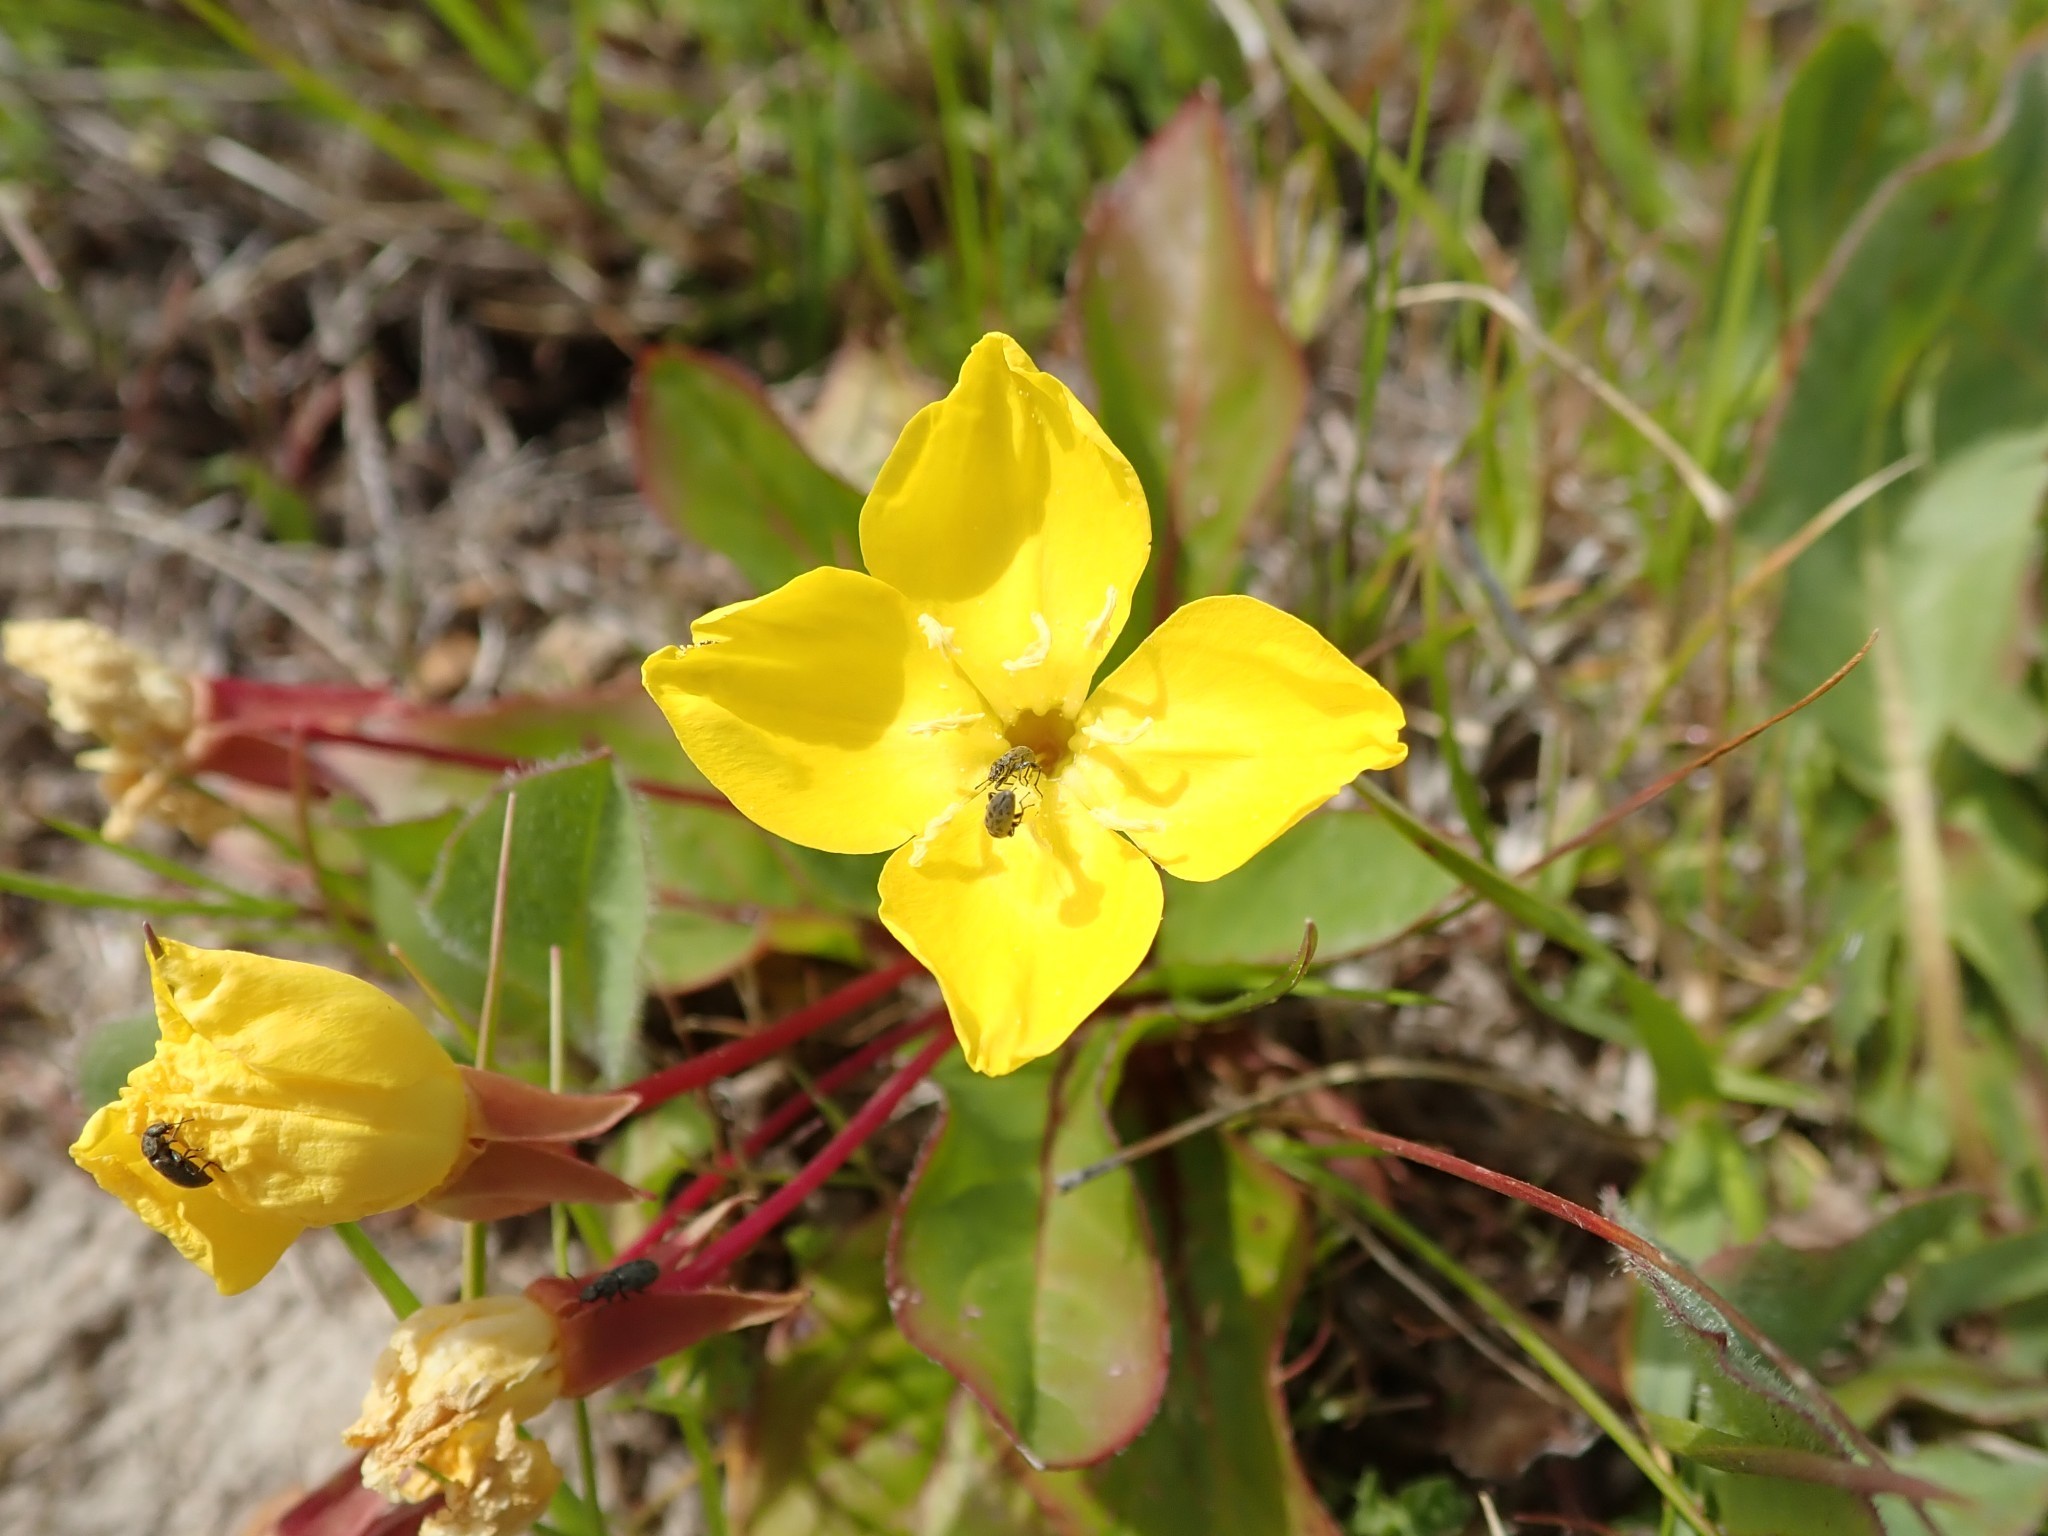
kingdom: Plantae
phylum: Tracheophyta
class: Magnoliopsida
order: Myrtales
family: Onagraceae
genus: Taraxia
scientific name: Taraxia ovata
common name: Goldeneggs
